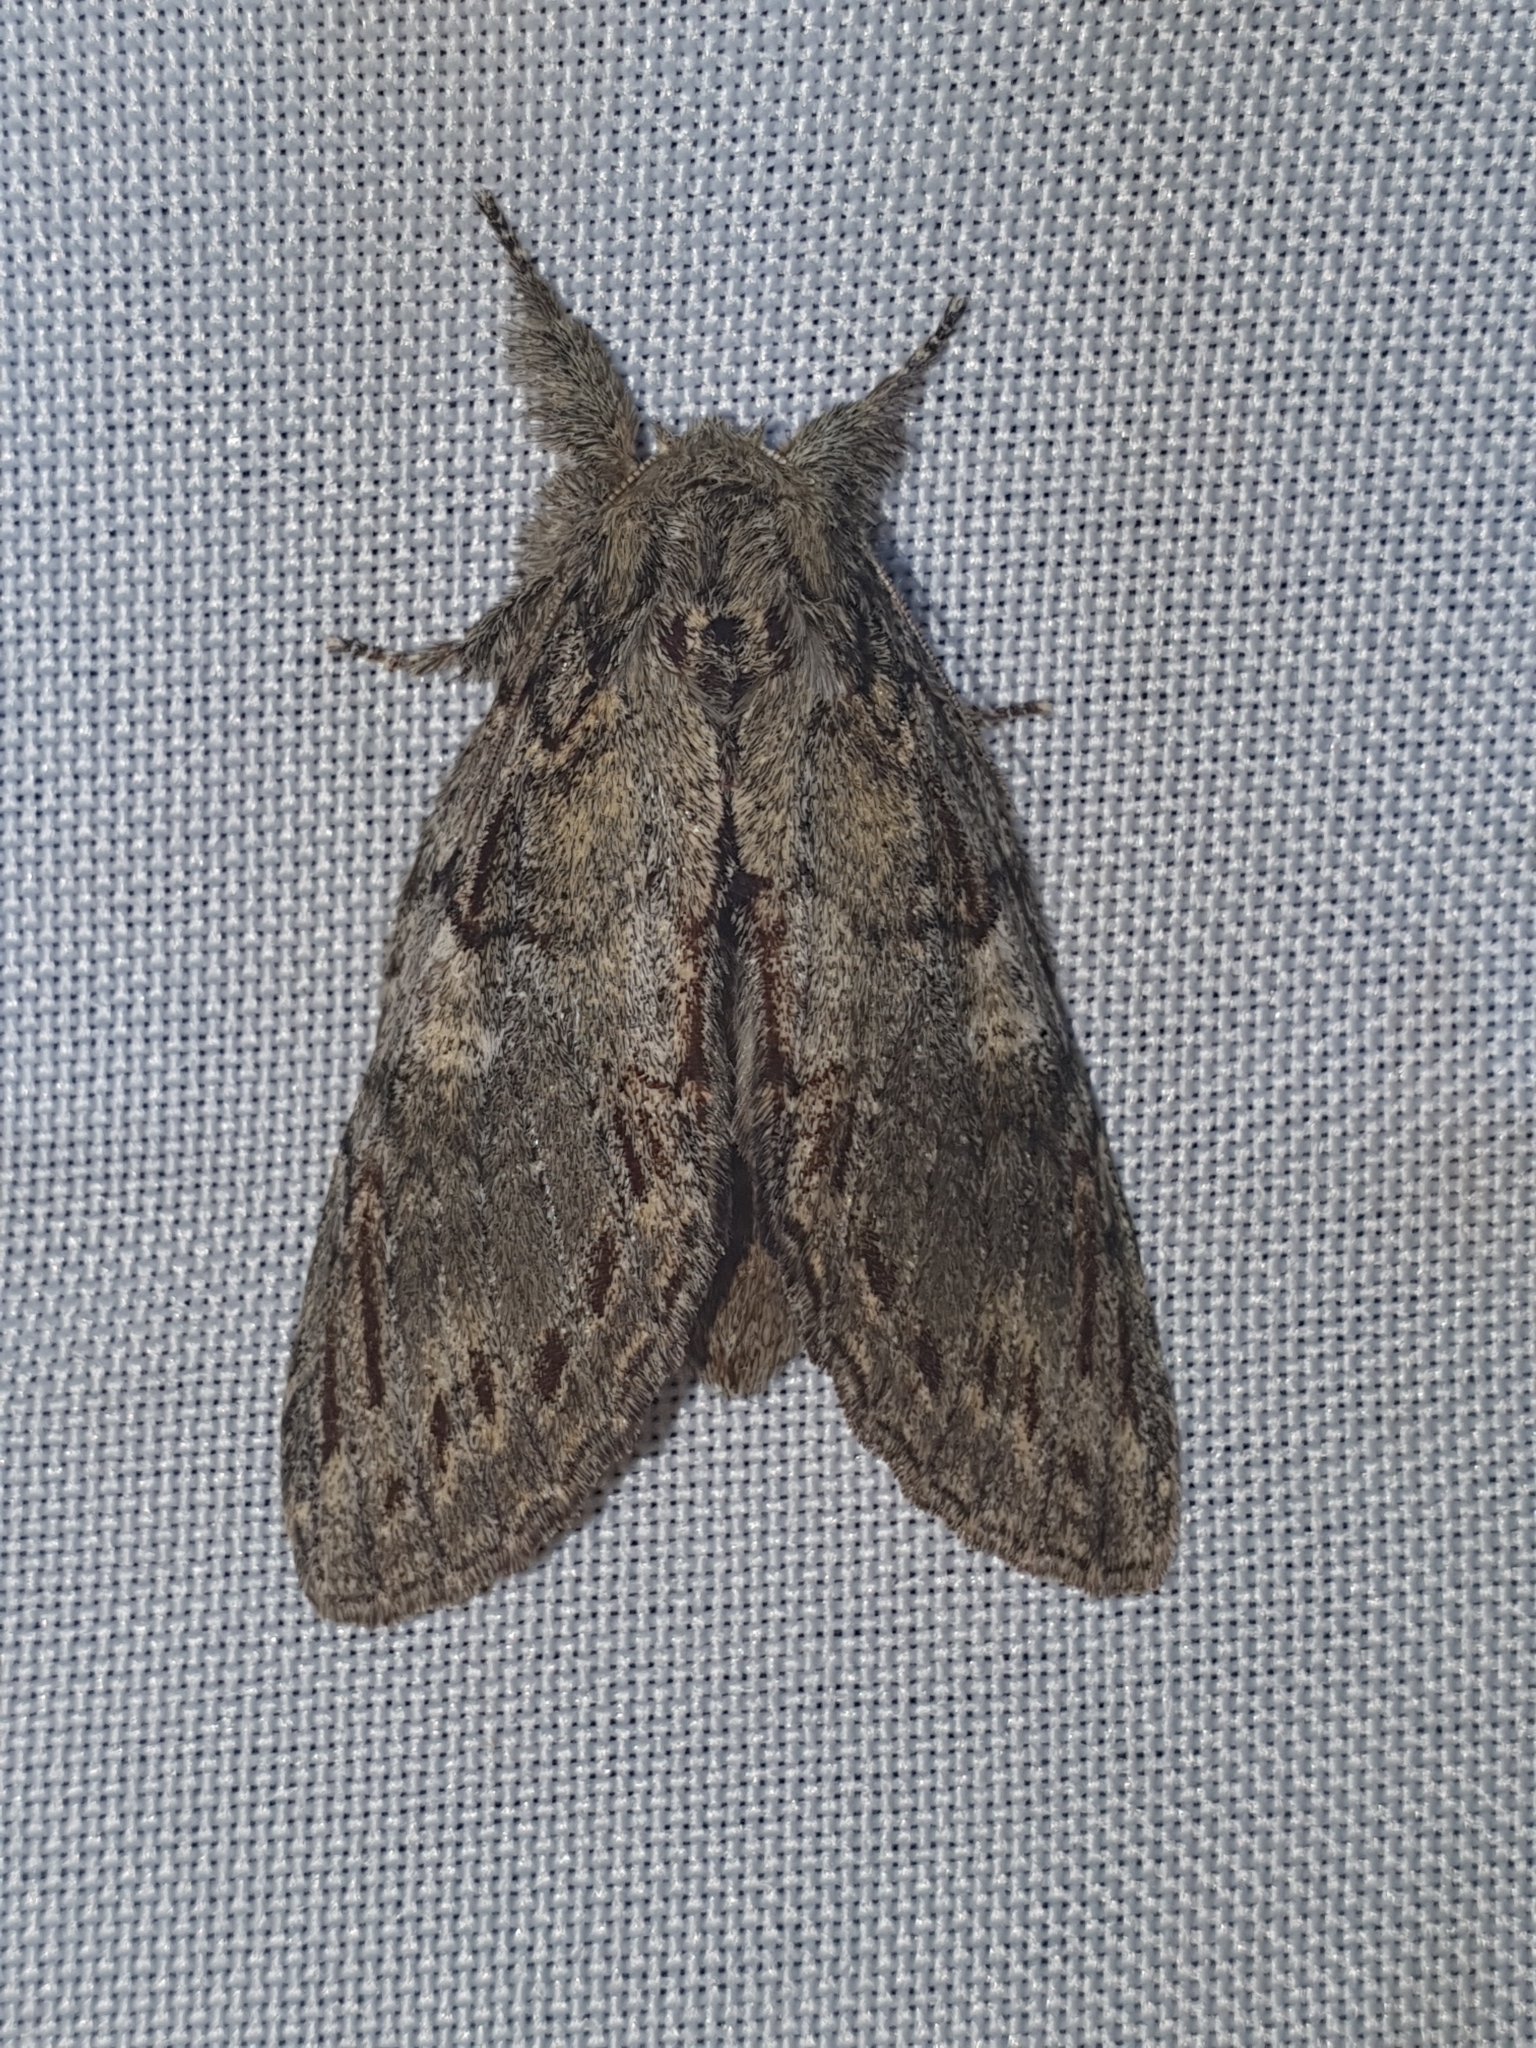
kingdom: Animalia
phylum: Arthropoda
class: Insecta
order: Lepidoptera
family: Notodontidae
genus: Peridea
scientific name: Peridea anceps
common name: Great prominent
